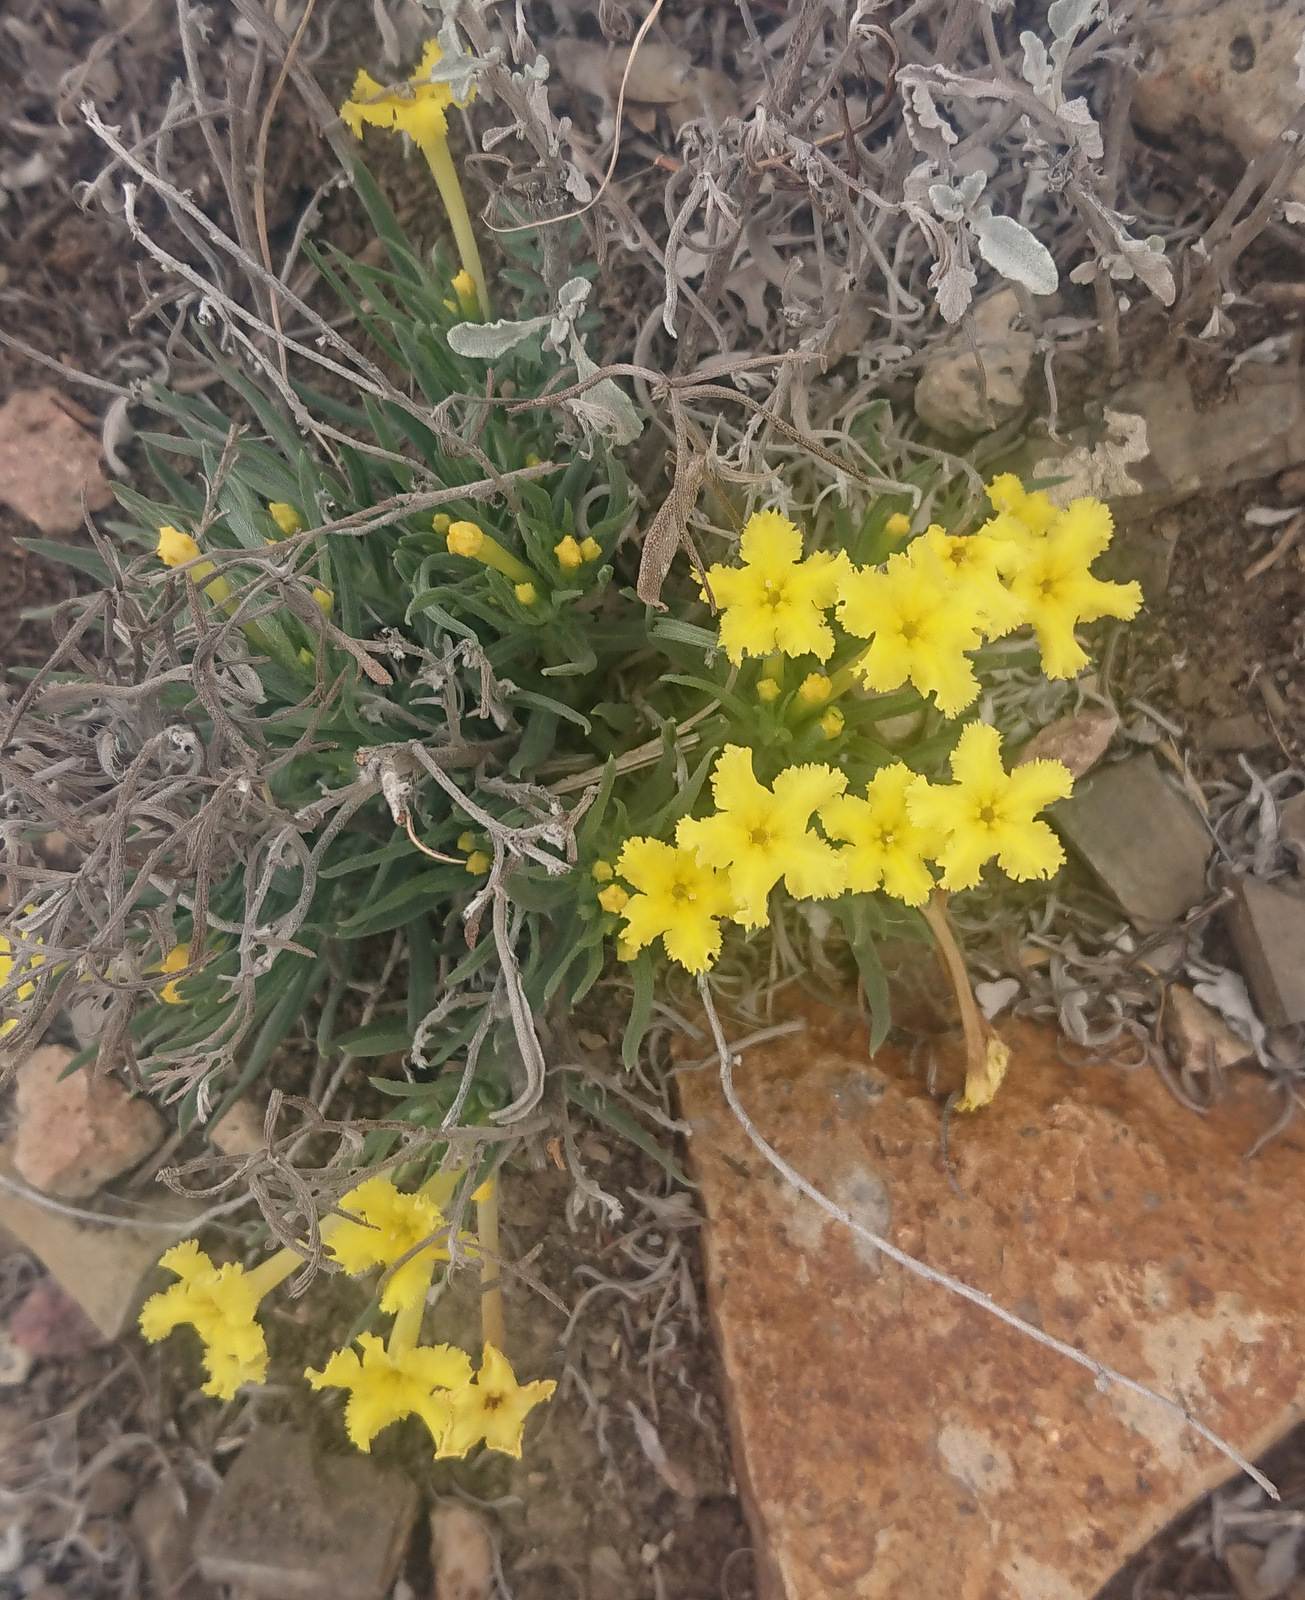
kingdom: Plantae
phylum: Tracheophyta
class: Magnoliopsida
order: Boraginales
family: Boraginaceae
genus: Lithospermum
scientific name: Lithospermum incisum
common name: Fringed gromwell
